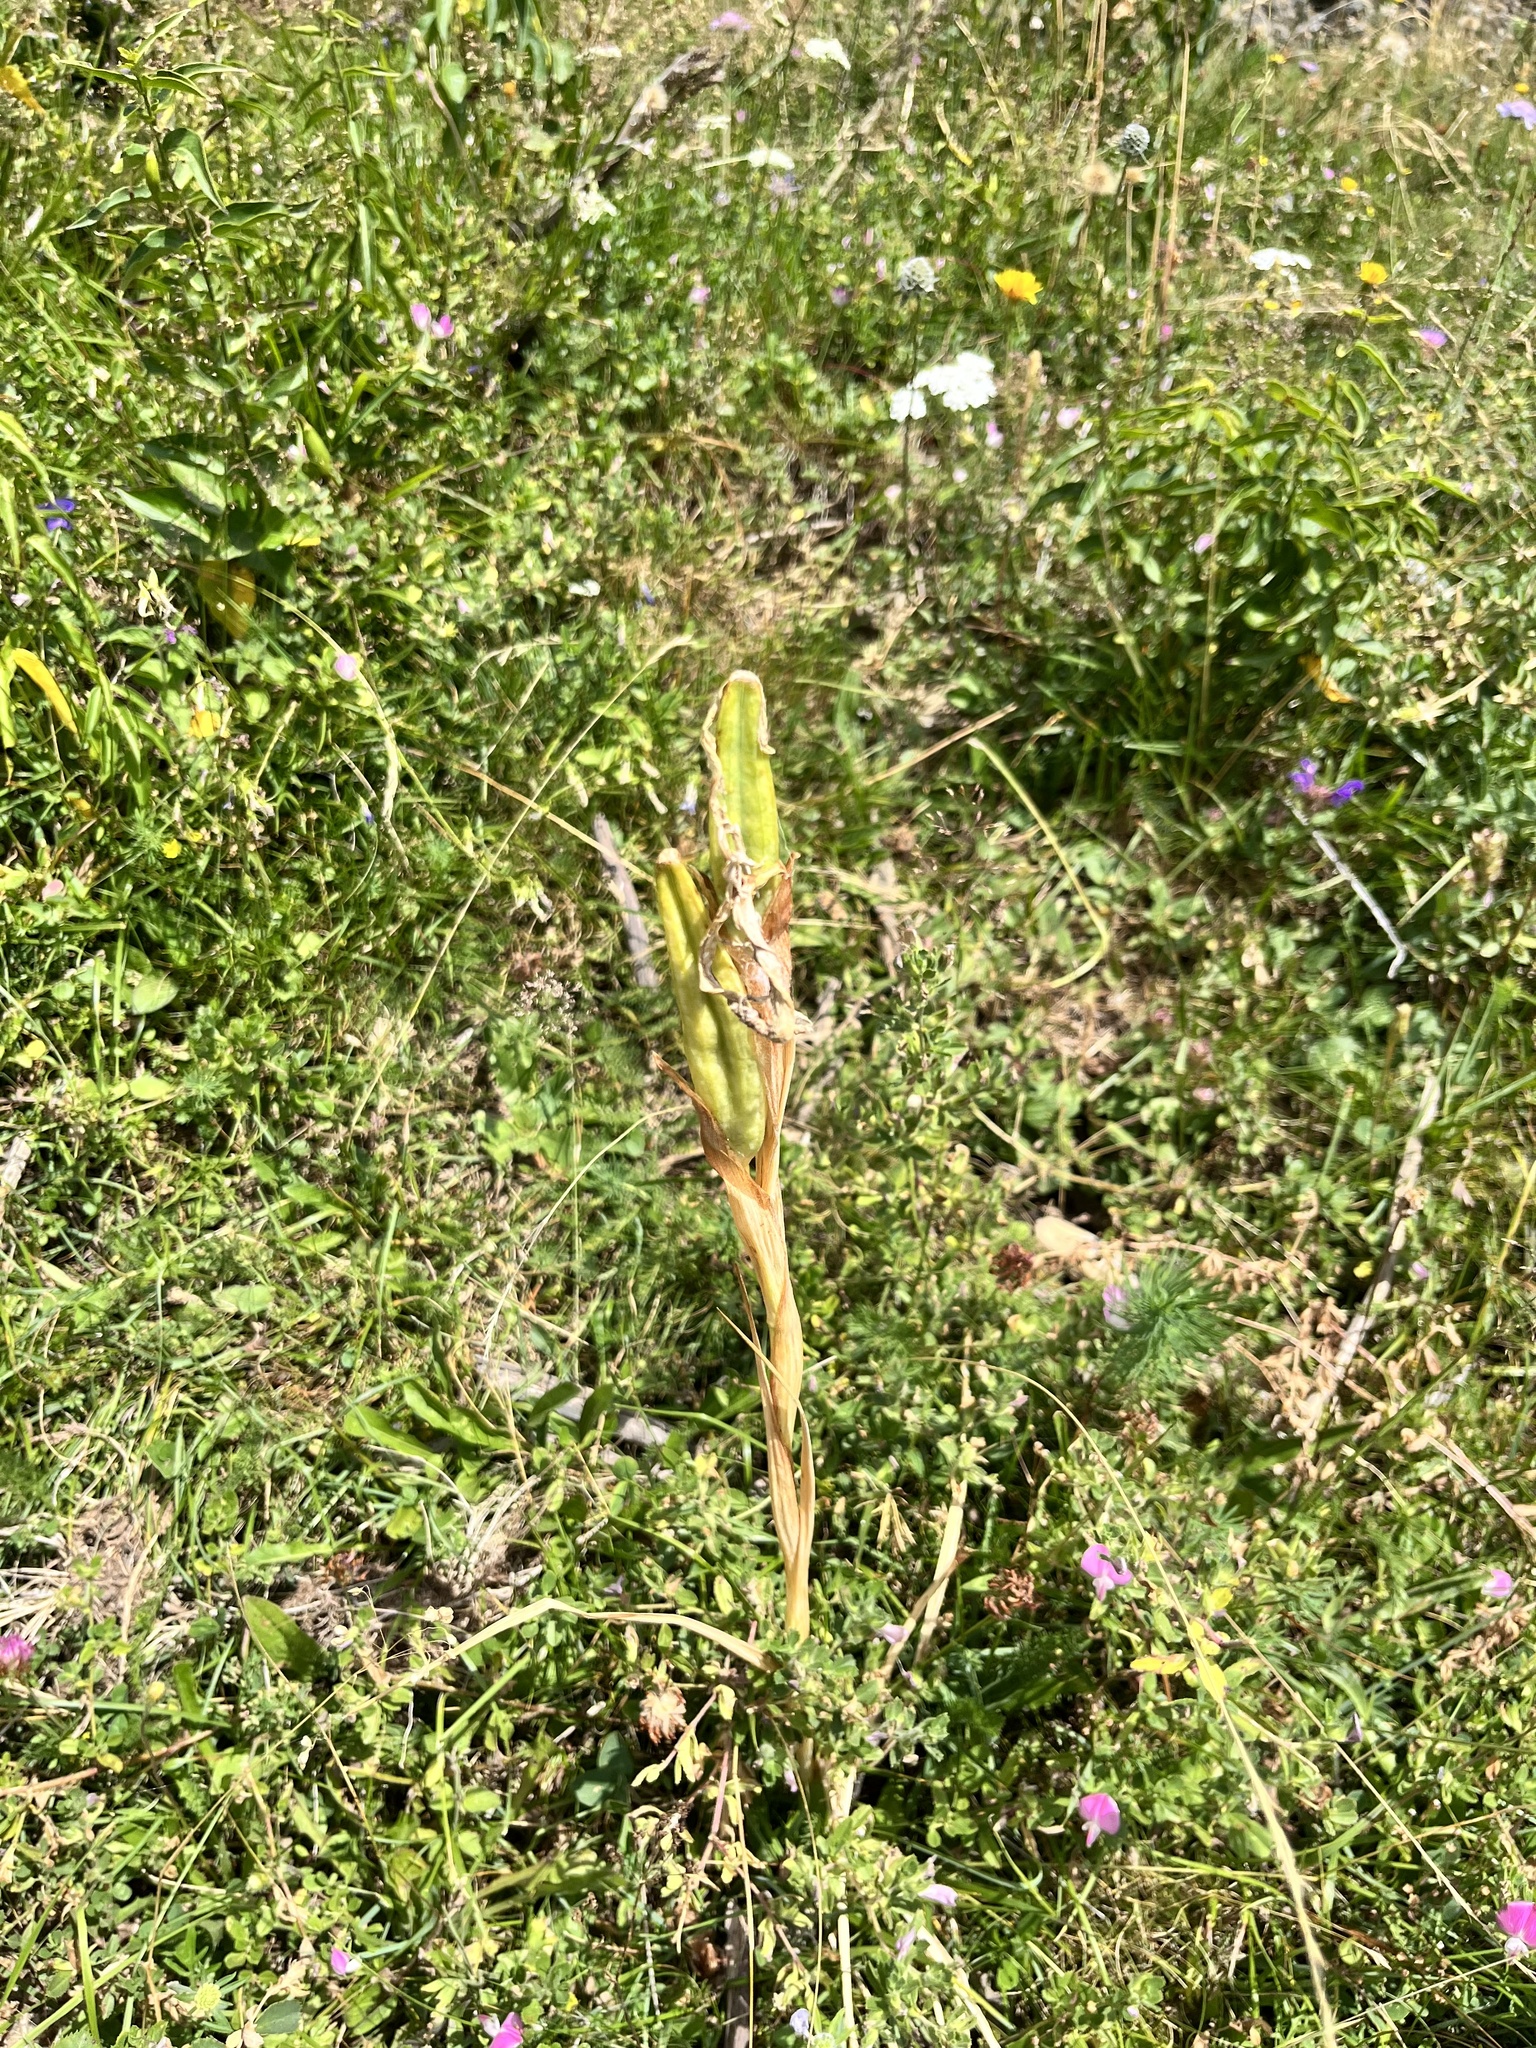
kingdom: Plantae
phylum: Tracheophyta
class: Liliopsida
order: Asparagales
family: Iridaceae
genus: Iris
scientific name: Iris
